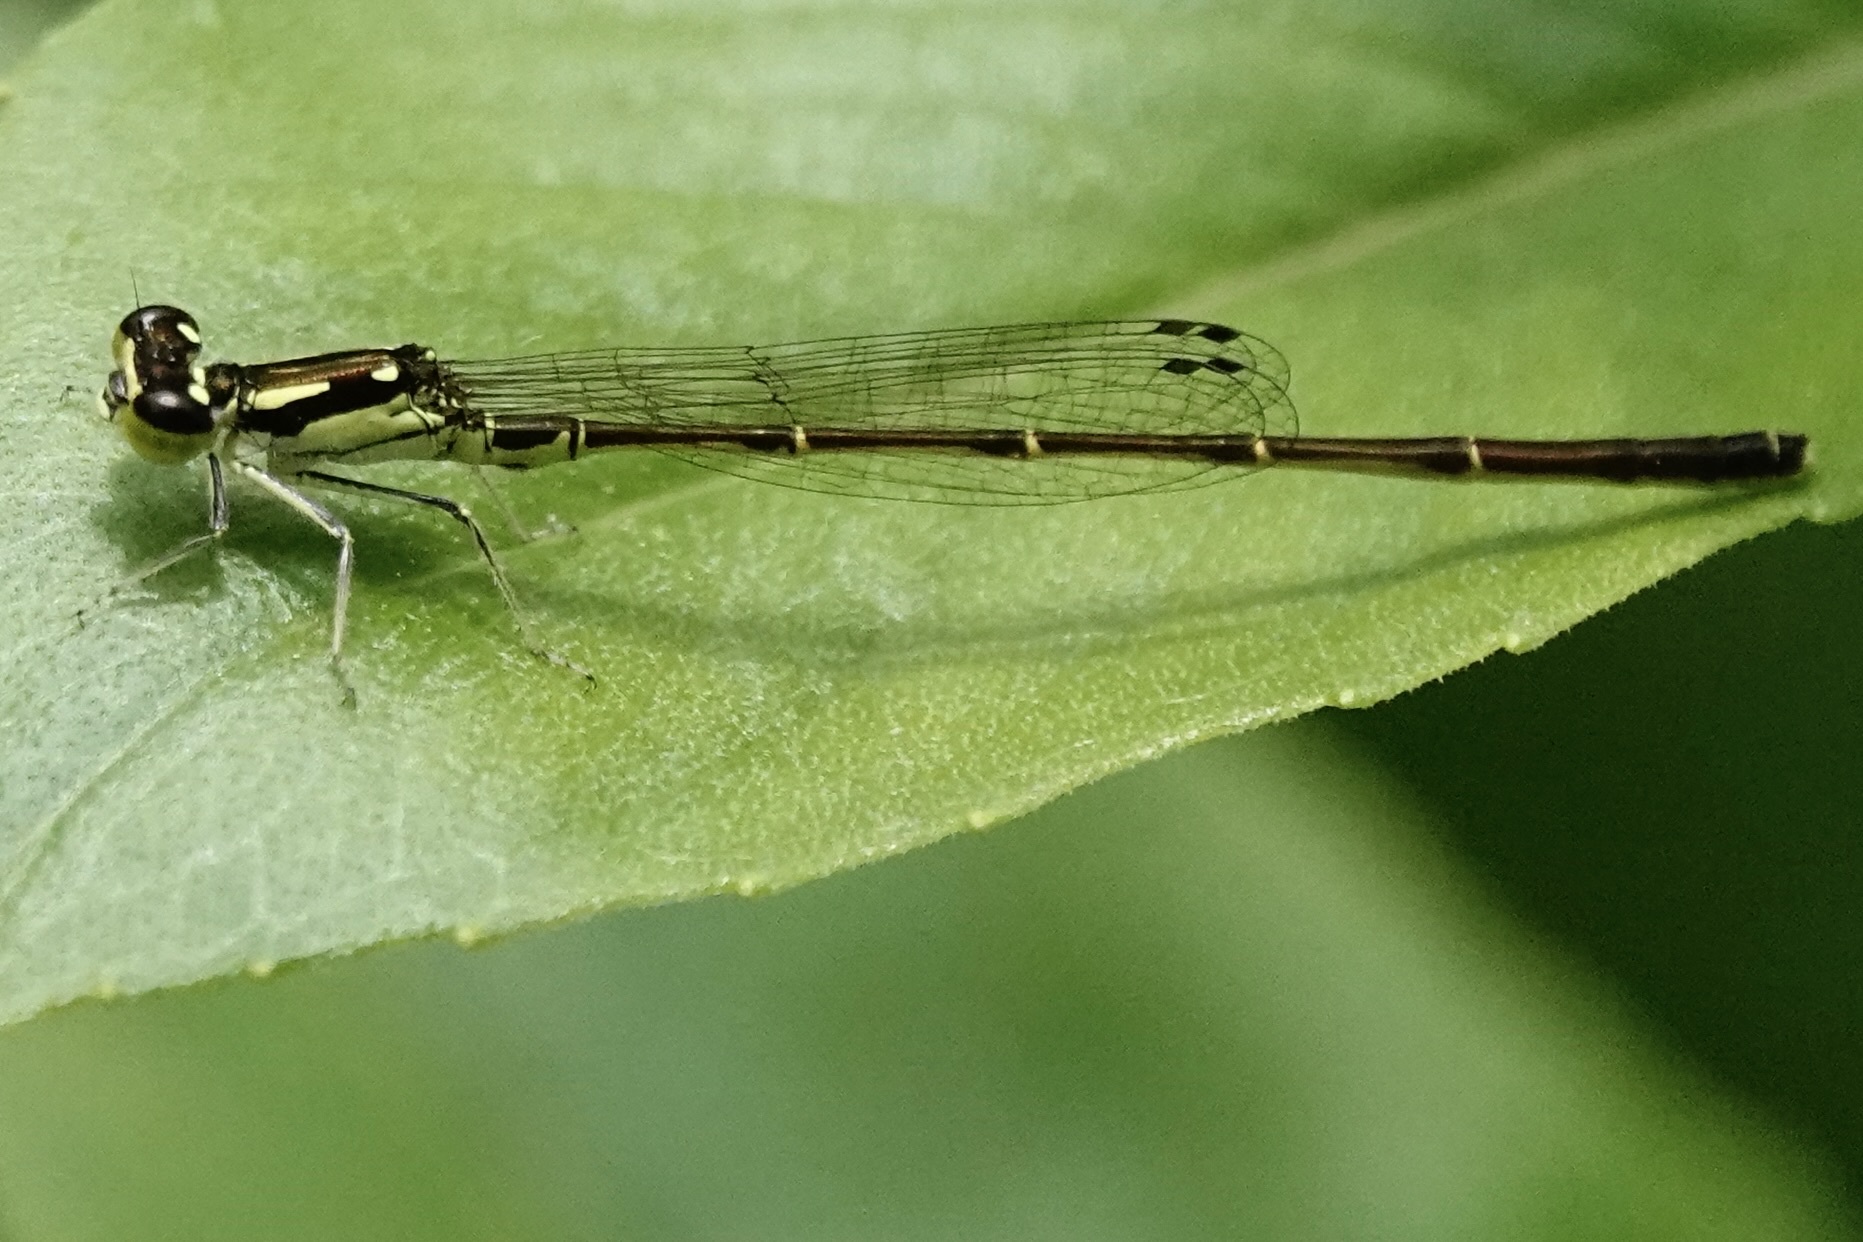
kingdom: Animalia
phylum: Arthropoda
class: Insecta
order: Odonata
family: Coenagrionidae
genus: Ischnura
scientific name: Ischnura posita
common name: Fragile forktail
